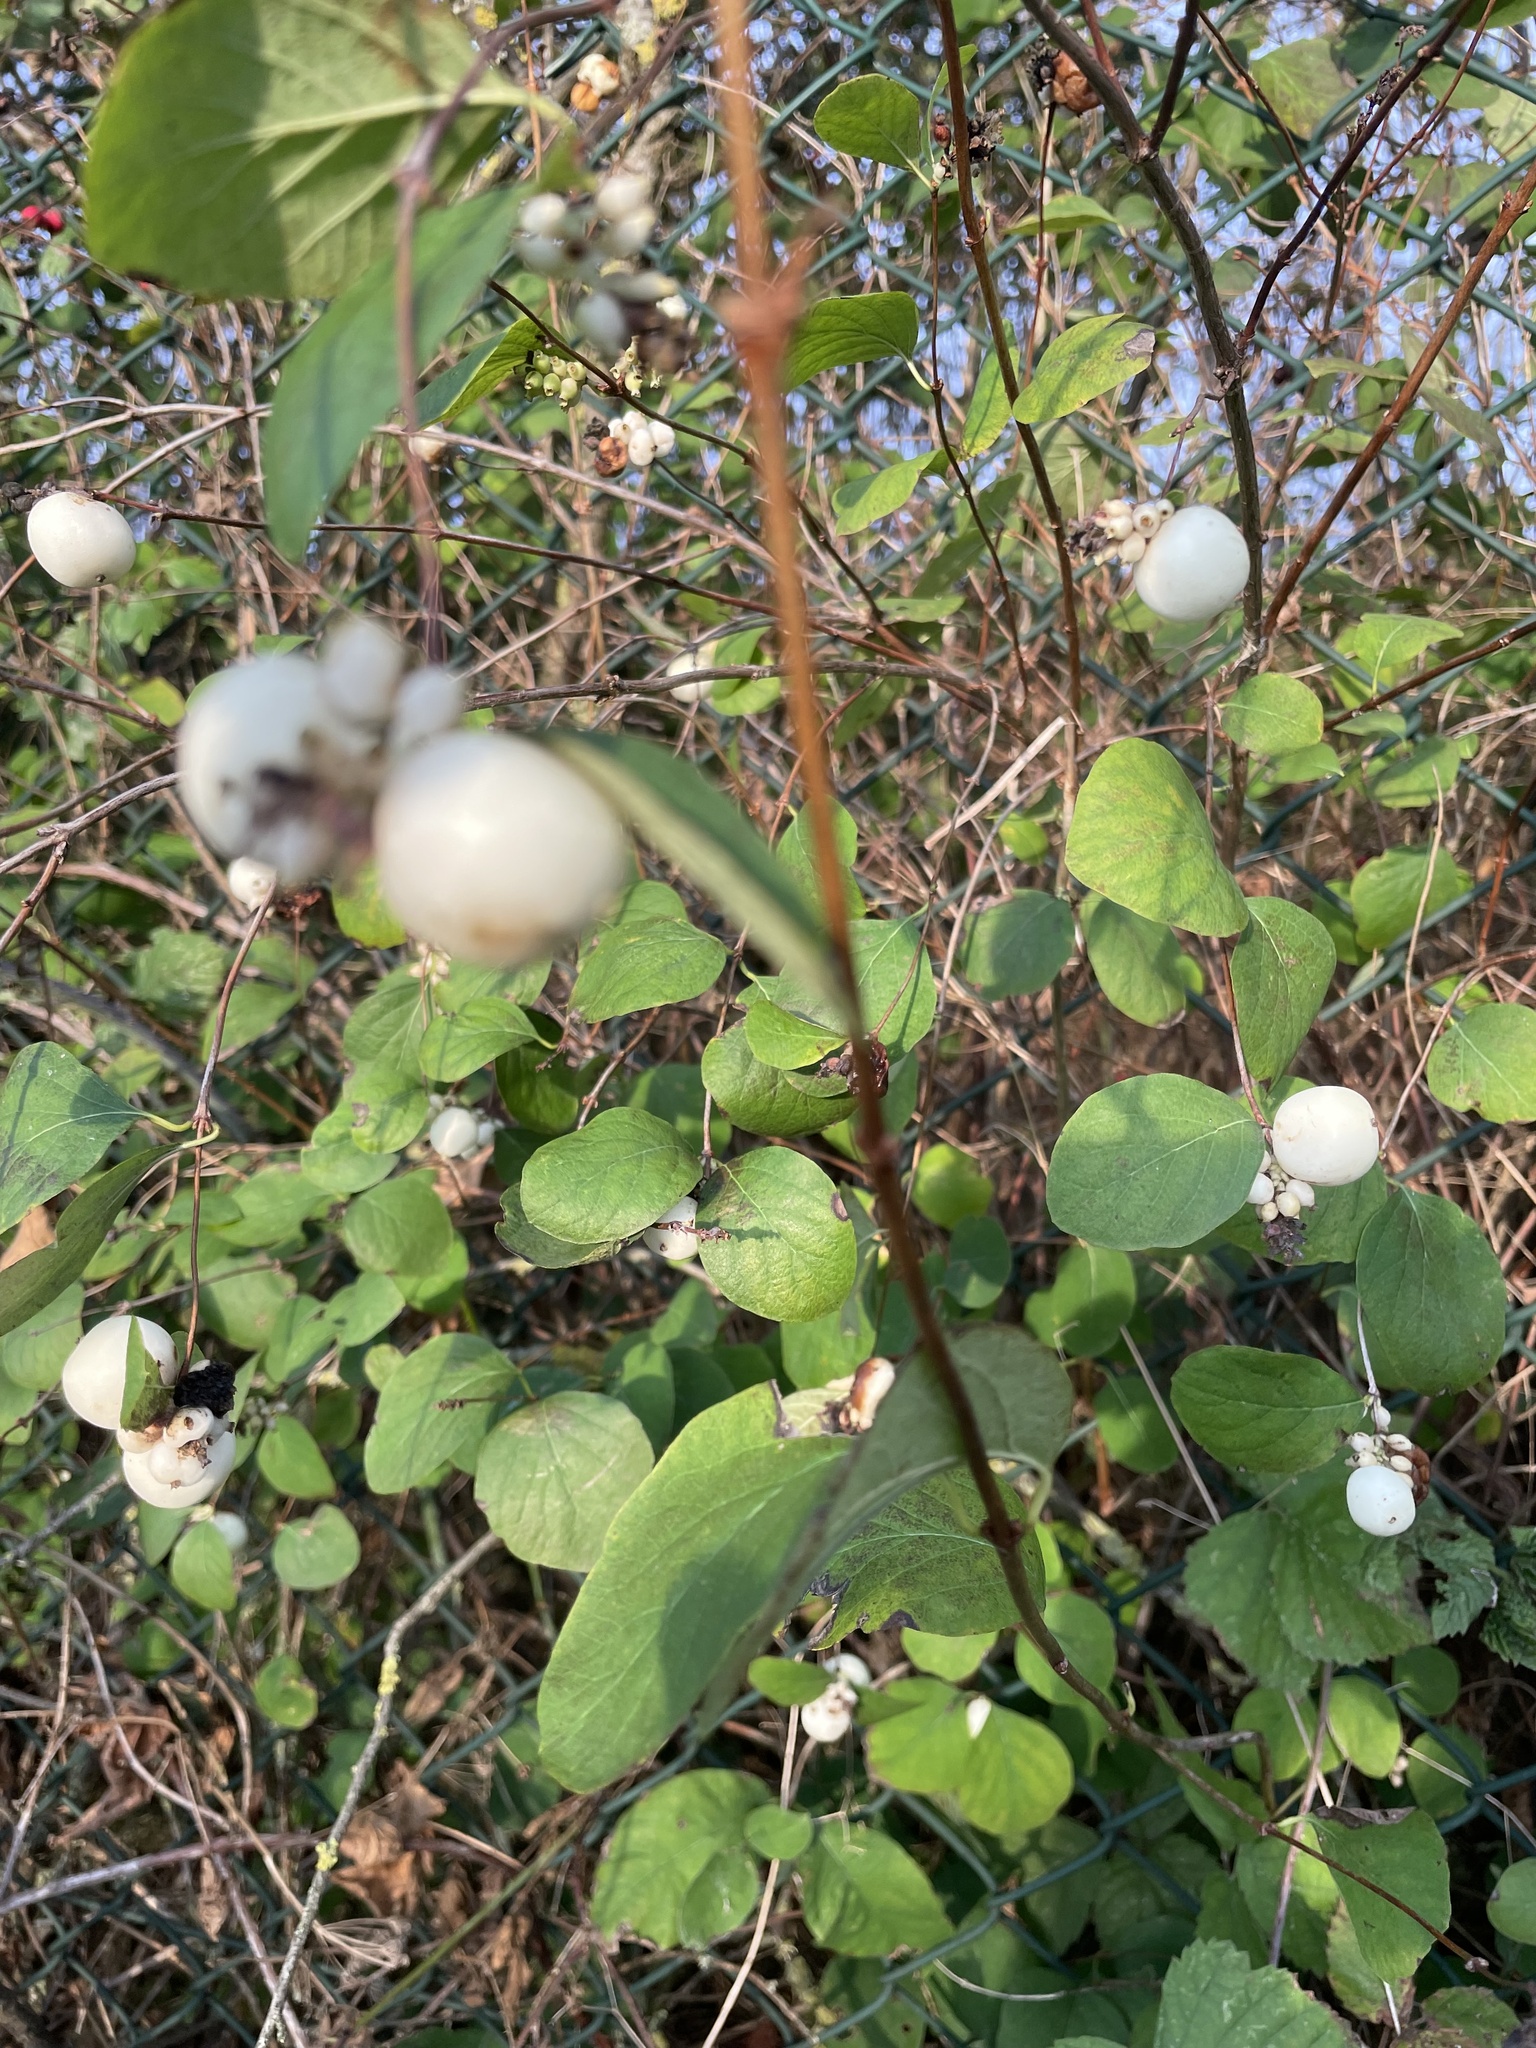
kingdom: Plantae
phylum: Tracheophyta
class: Magnoliopsida
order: Dipsacales
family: Caprifoliaceae
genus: Symphoricarpos
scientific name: Symphoricarpos albus
